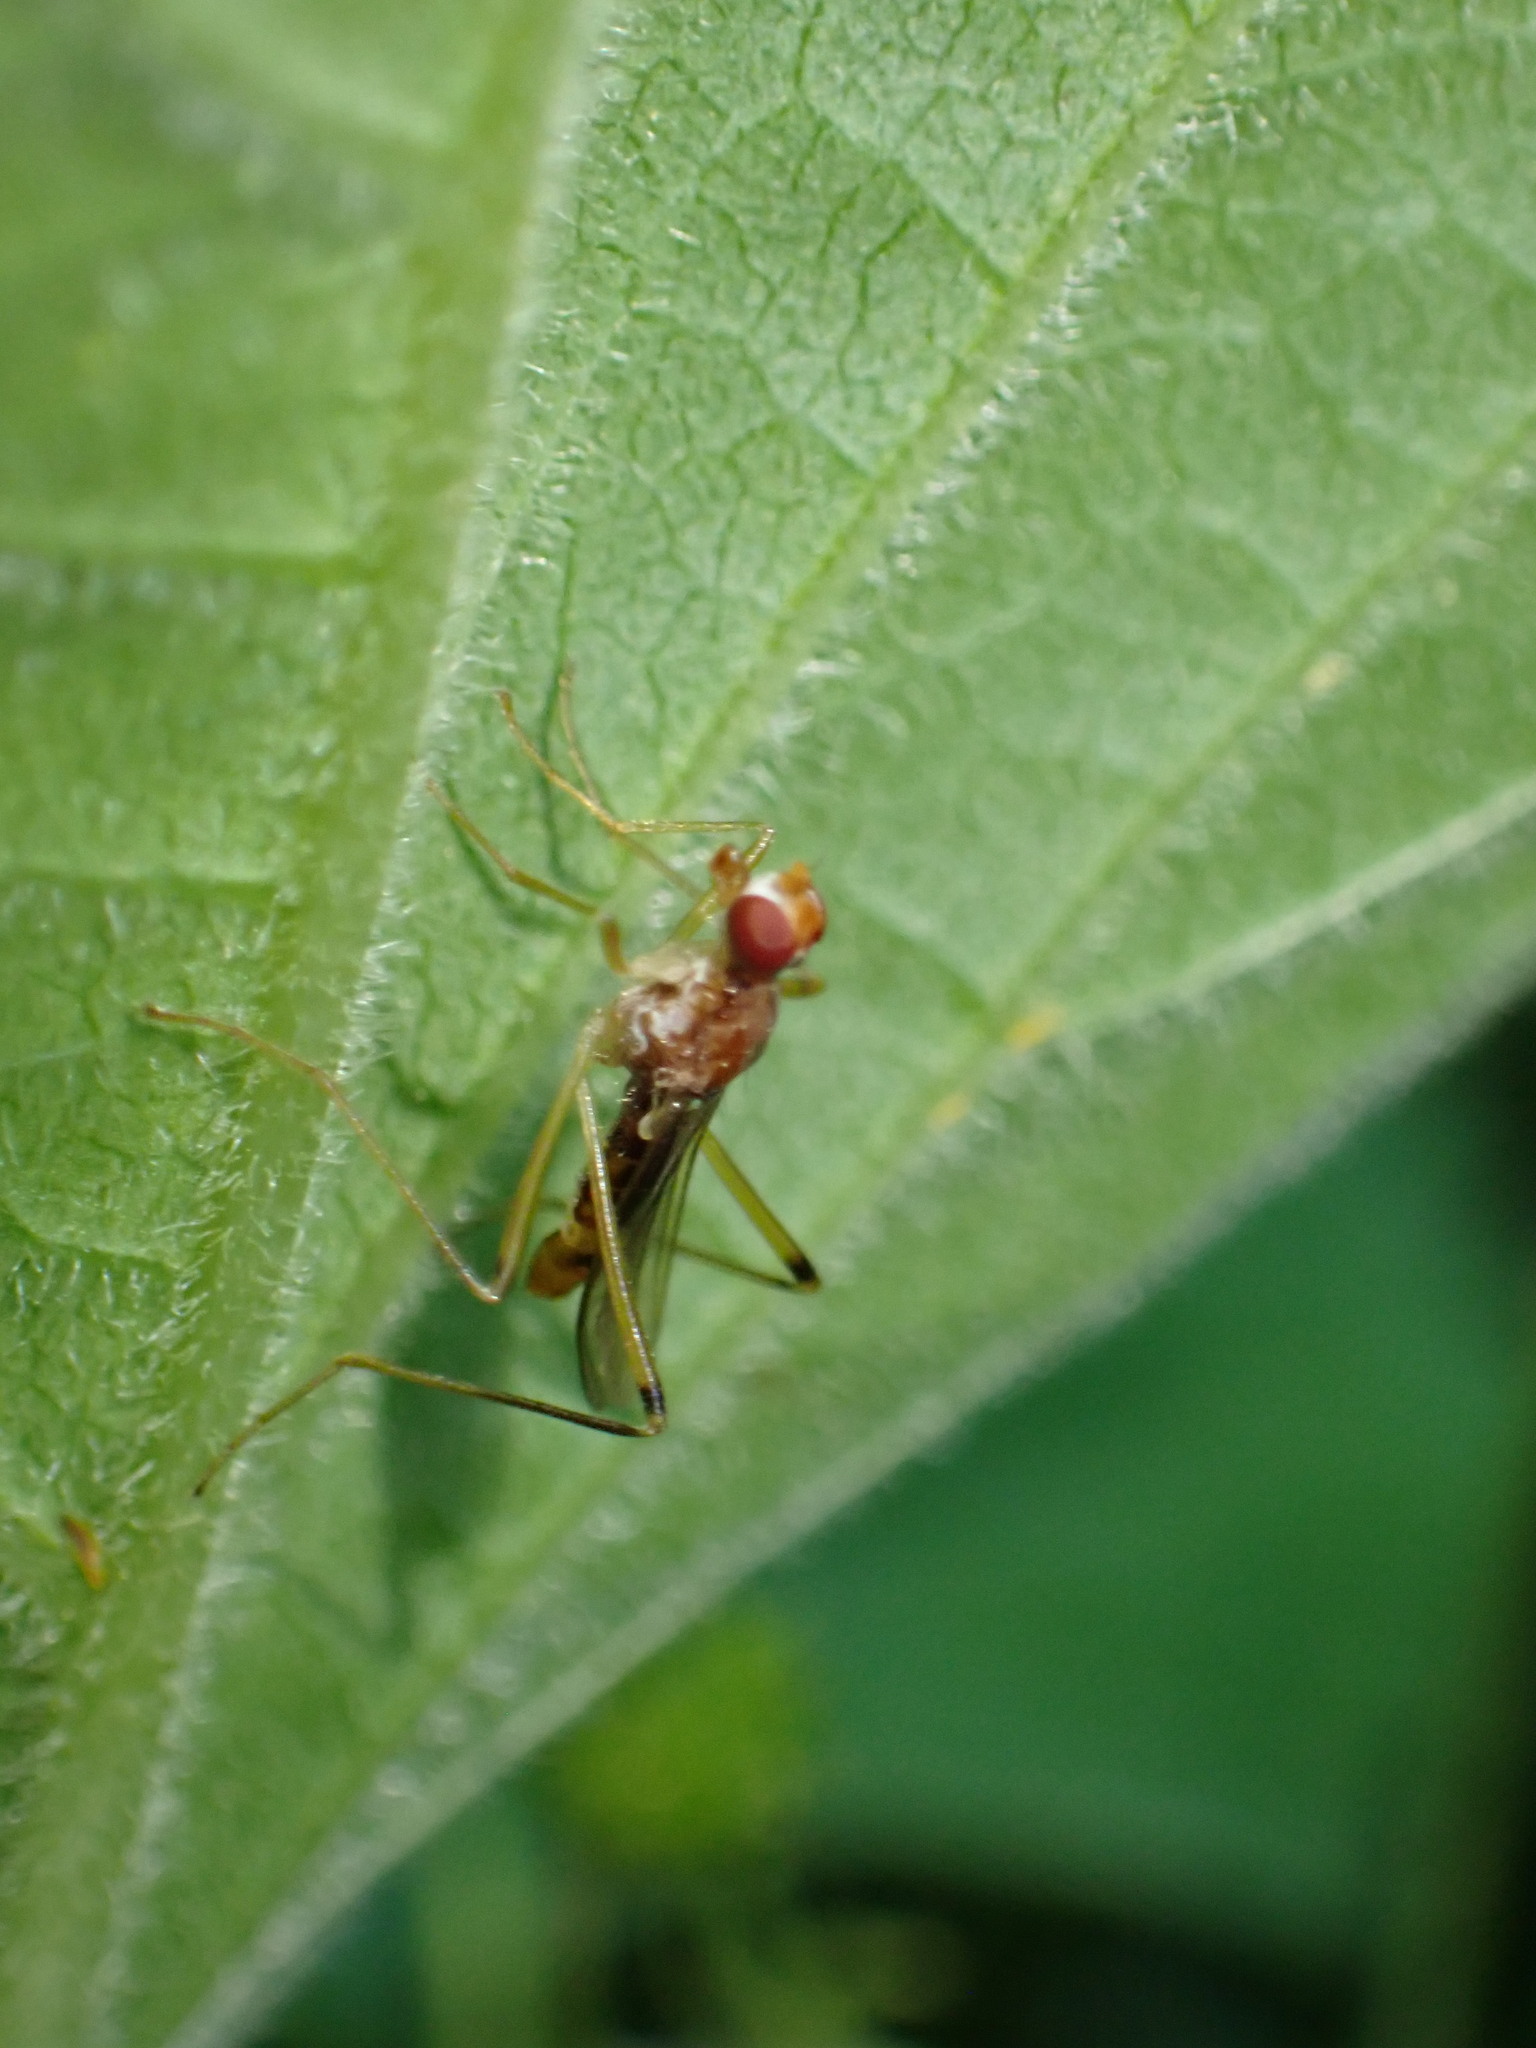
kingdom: Animalia
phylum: Arthropoda
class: Insecta
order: Diptera
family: Micropezidae
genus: Compsobata
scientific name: Compsobata univitta
